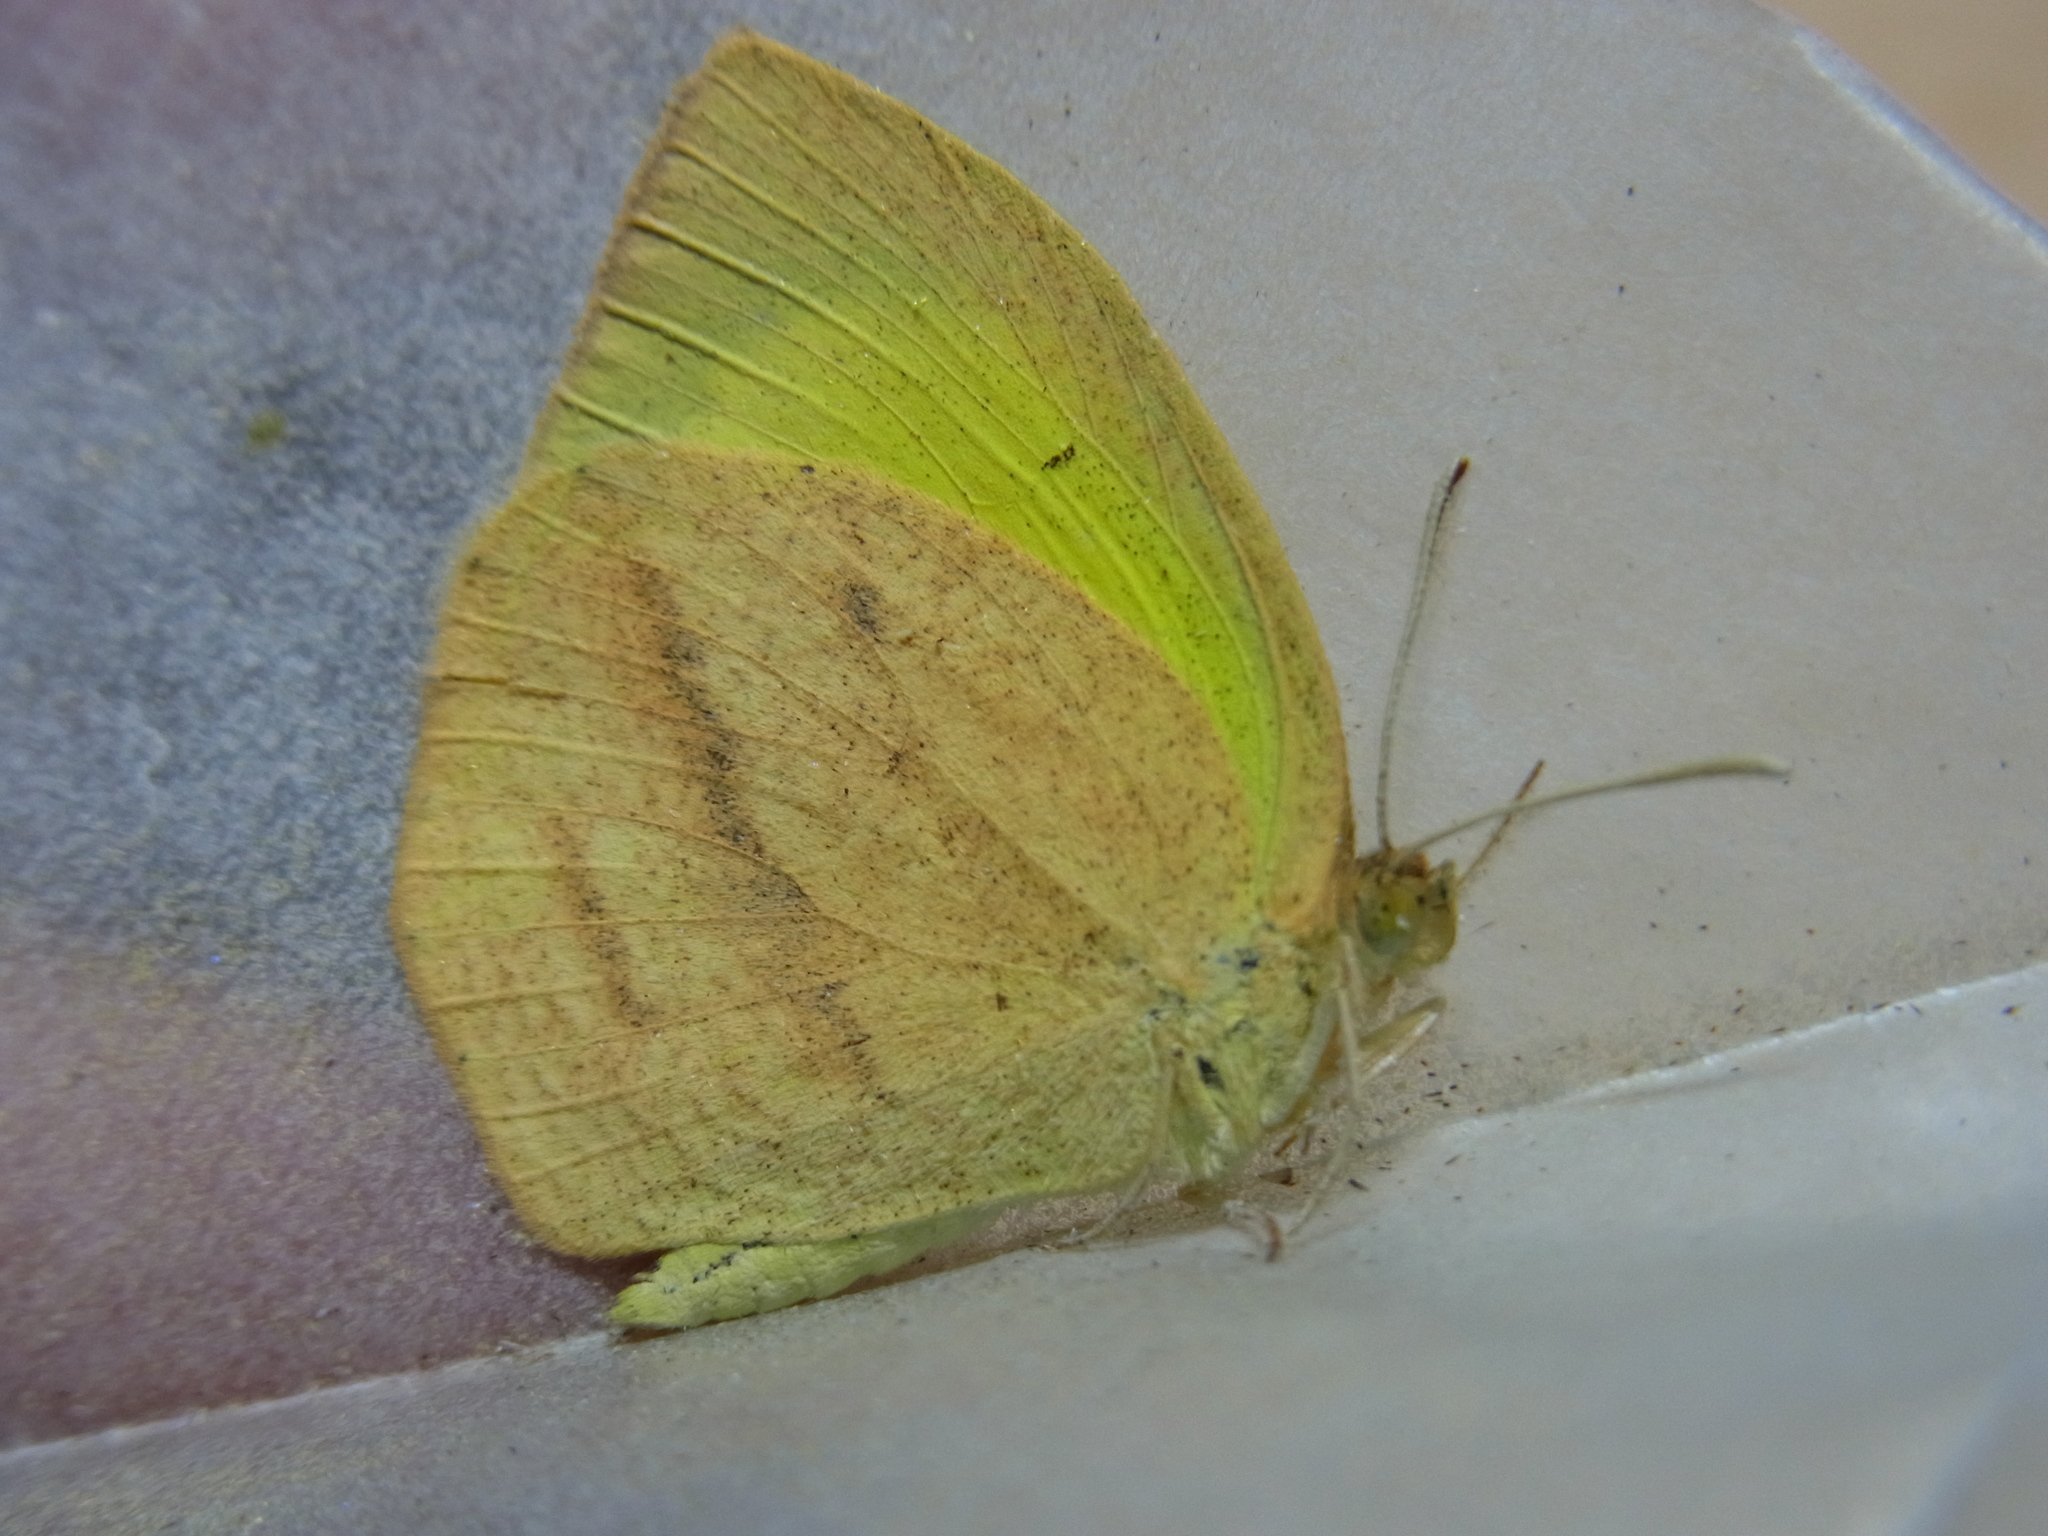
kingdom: Animalia
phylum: Arthropoda
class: Insecta
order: Lepidoptera
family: Pieridae
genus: Eurema
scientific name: Eurema laeta
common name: Spotless grass yellow
